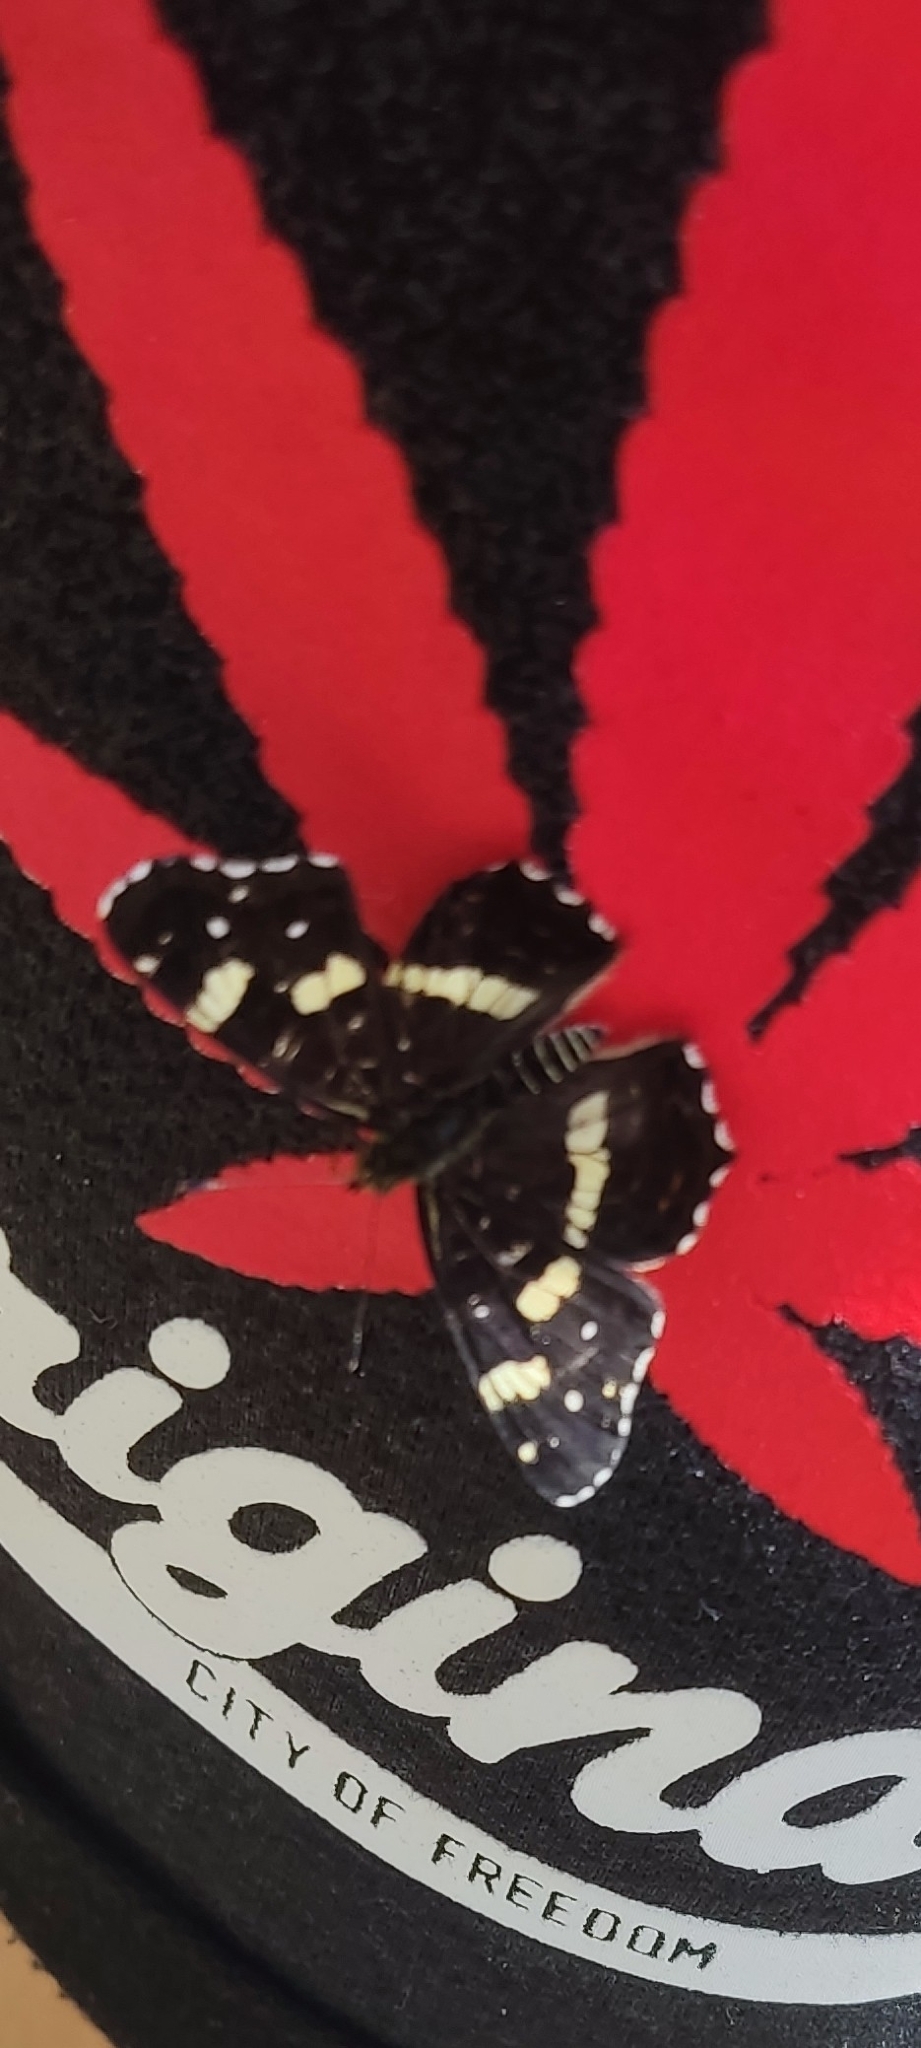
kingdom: Animalia
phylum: Arthropoda
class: Insecta
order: Lepidoptera
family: Nymphalidae
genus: Araschnia
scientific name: Araschnia levana
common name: Map butterfly
